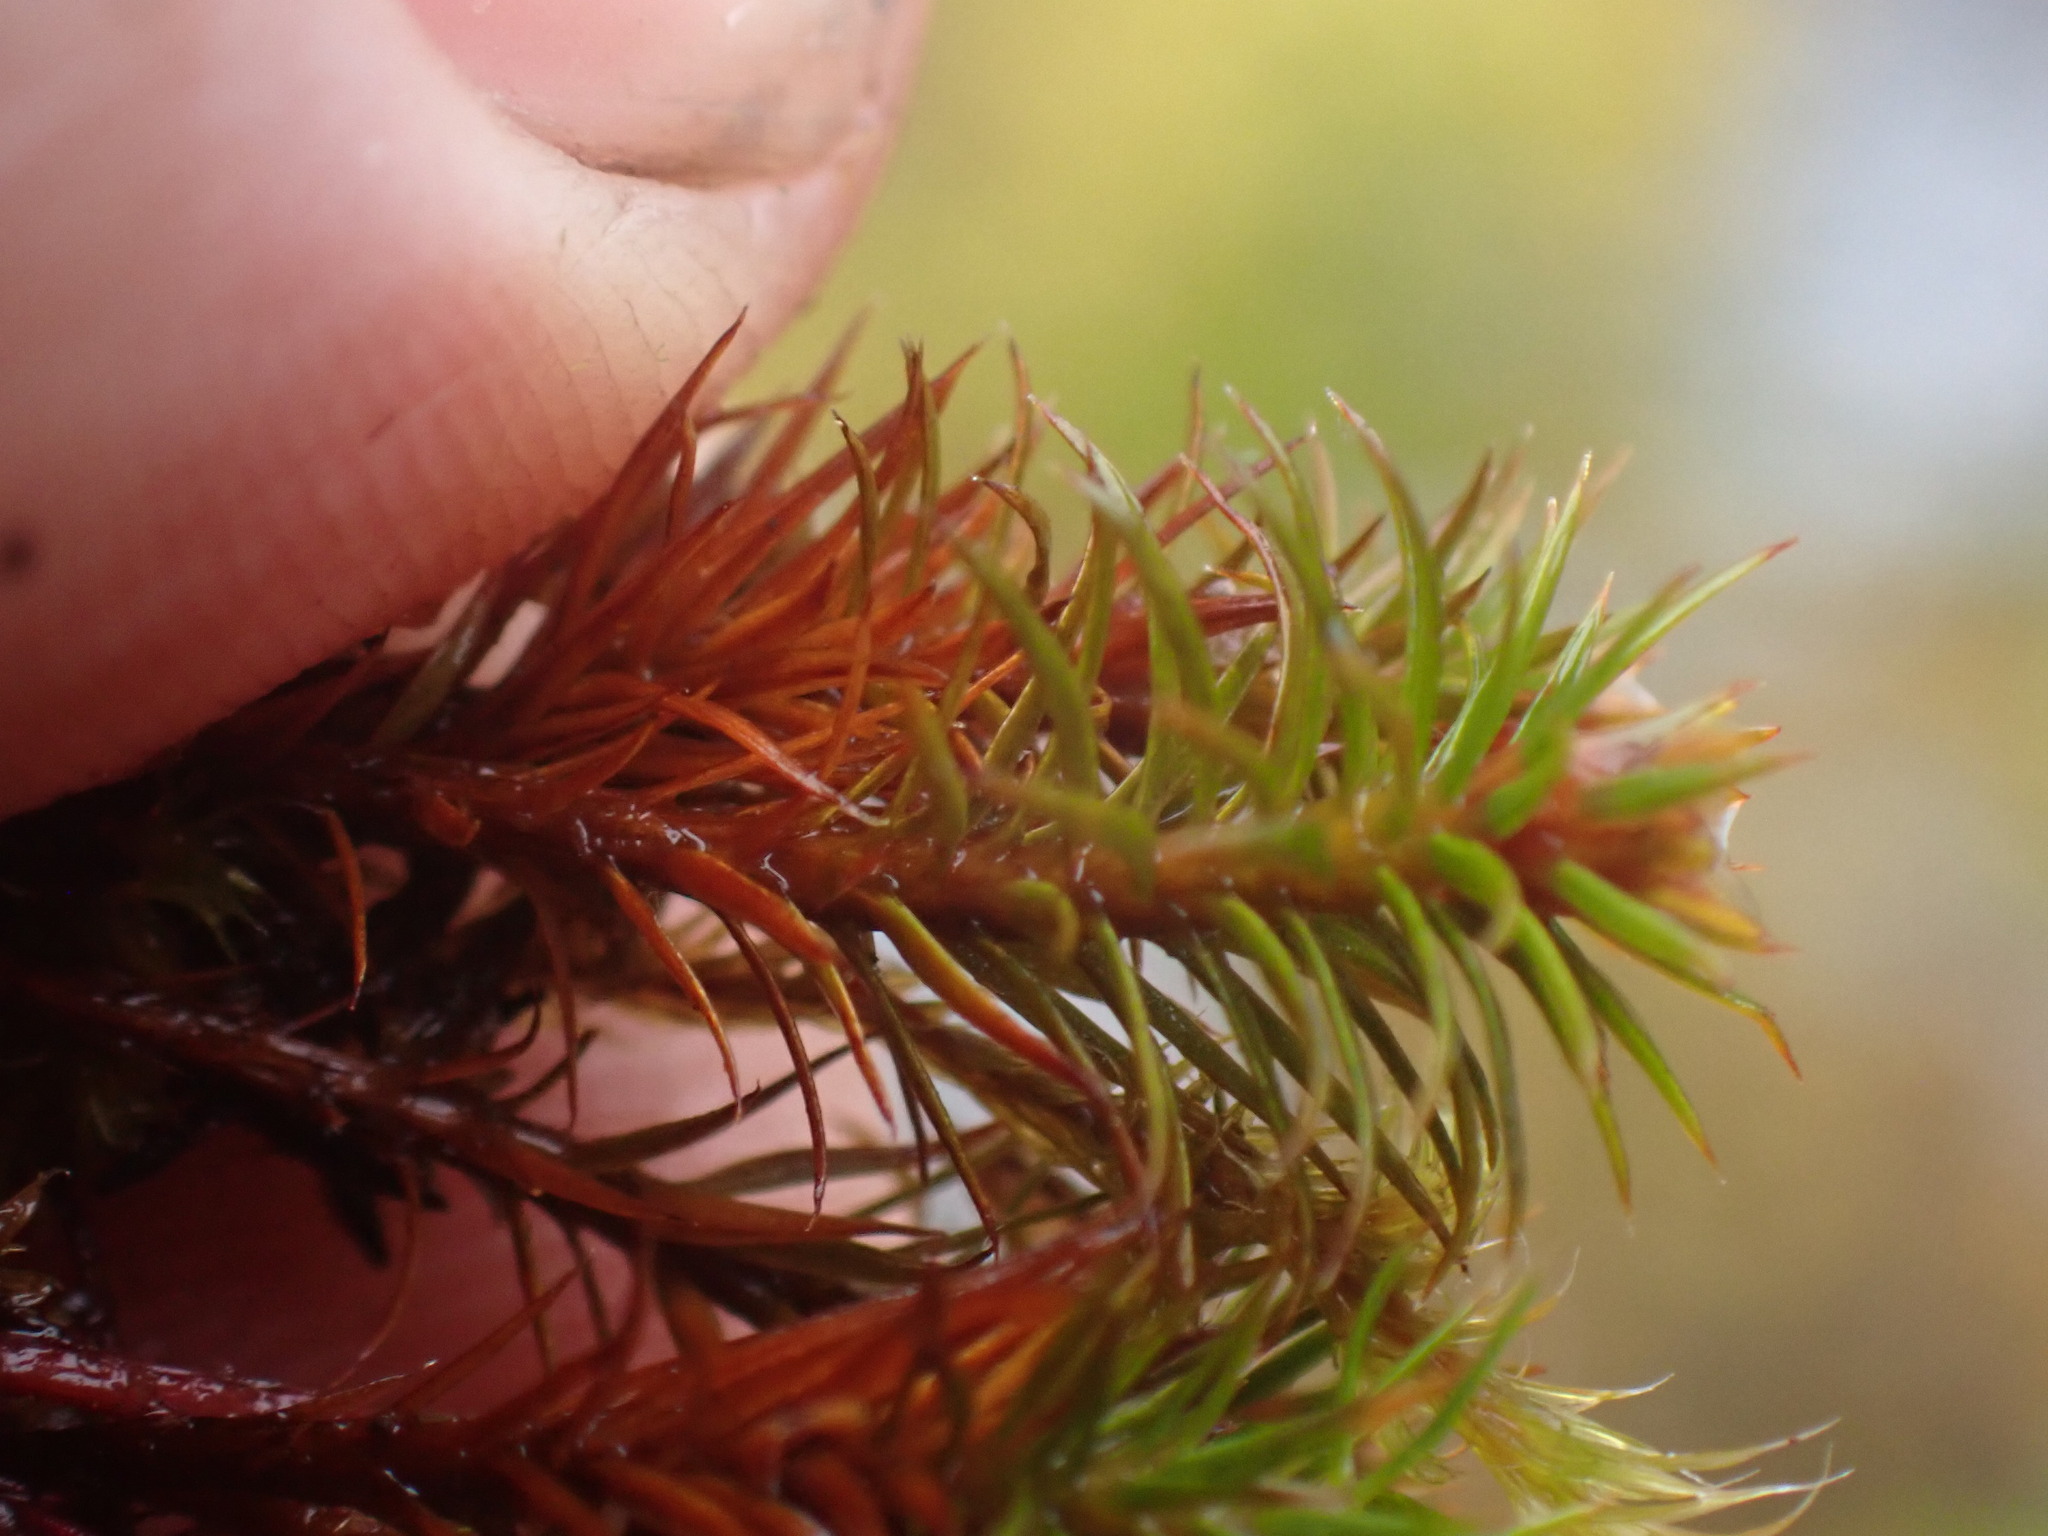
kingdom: Plantae
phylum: Bryophyta
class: Polytrichopsida
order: Polytrichales
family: Polytrichaceae
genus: Polytrichum
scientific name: Polytrichum juniperinum
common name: Juniper haircap moss
